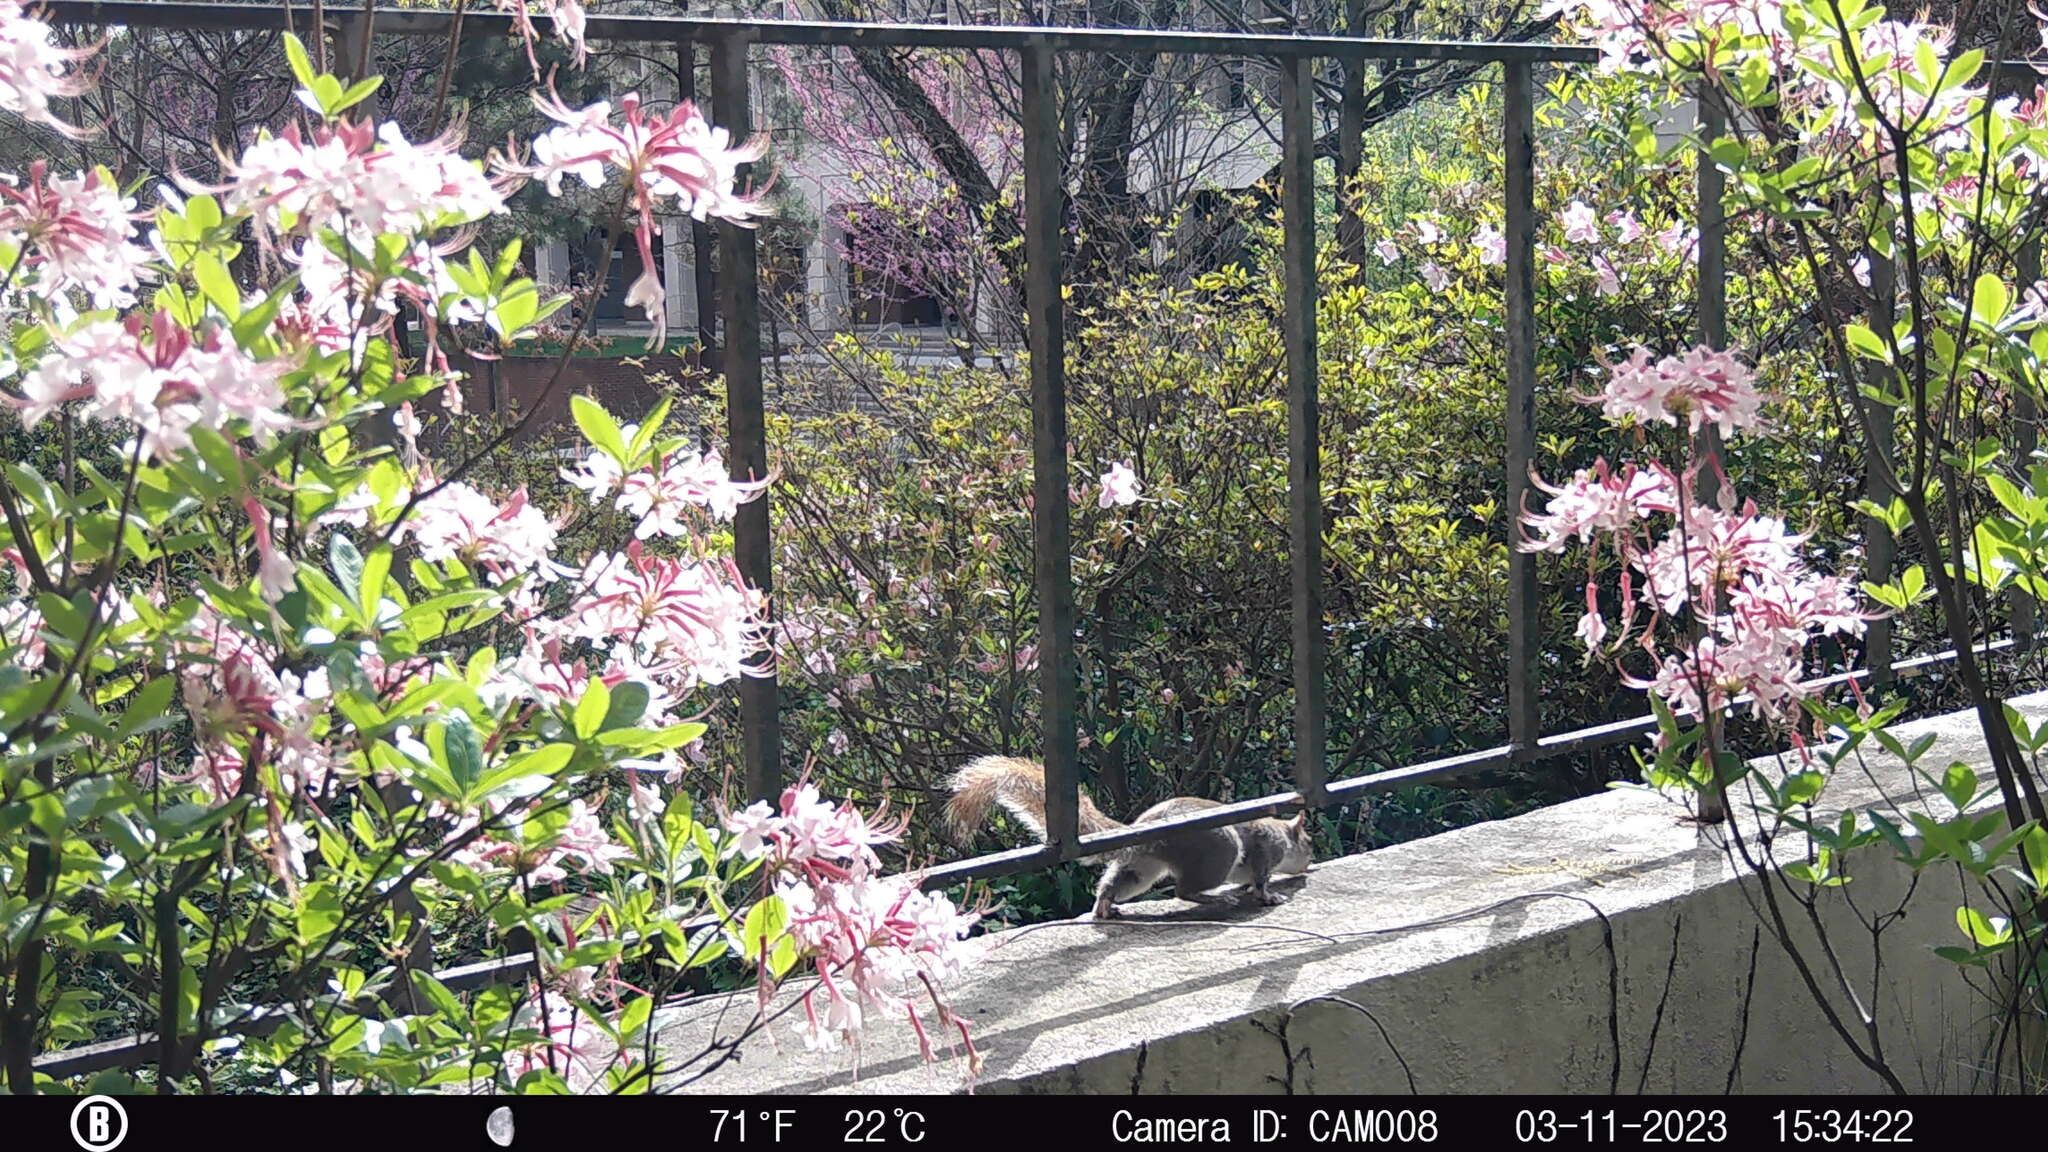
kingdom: Animalia
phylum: Chordata
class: Mammalia
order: Rodentia
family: Sciuridae
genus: Sciurus
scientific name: Sciurus carolinensis
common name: Eastern gray squirrel
